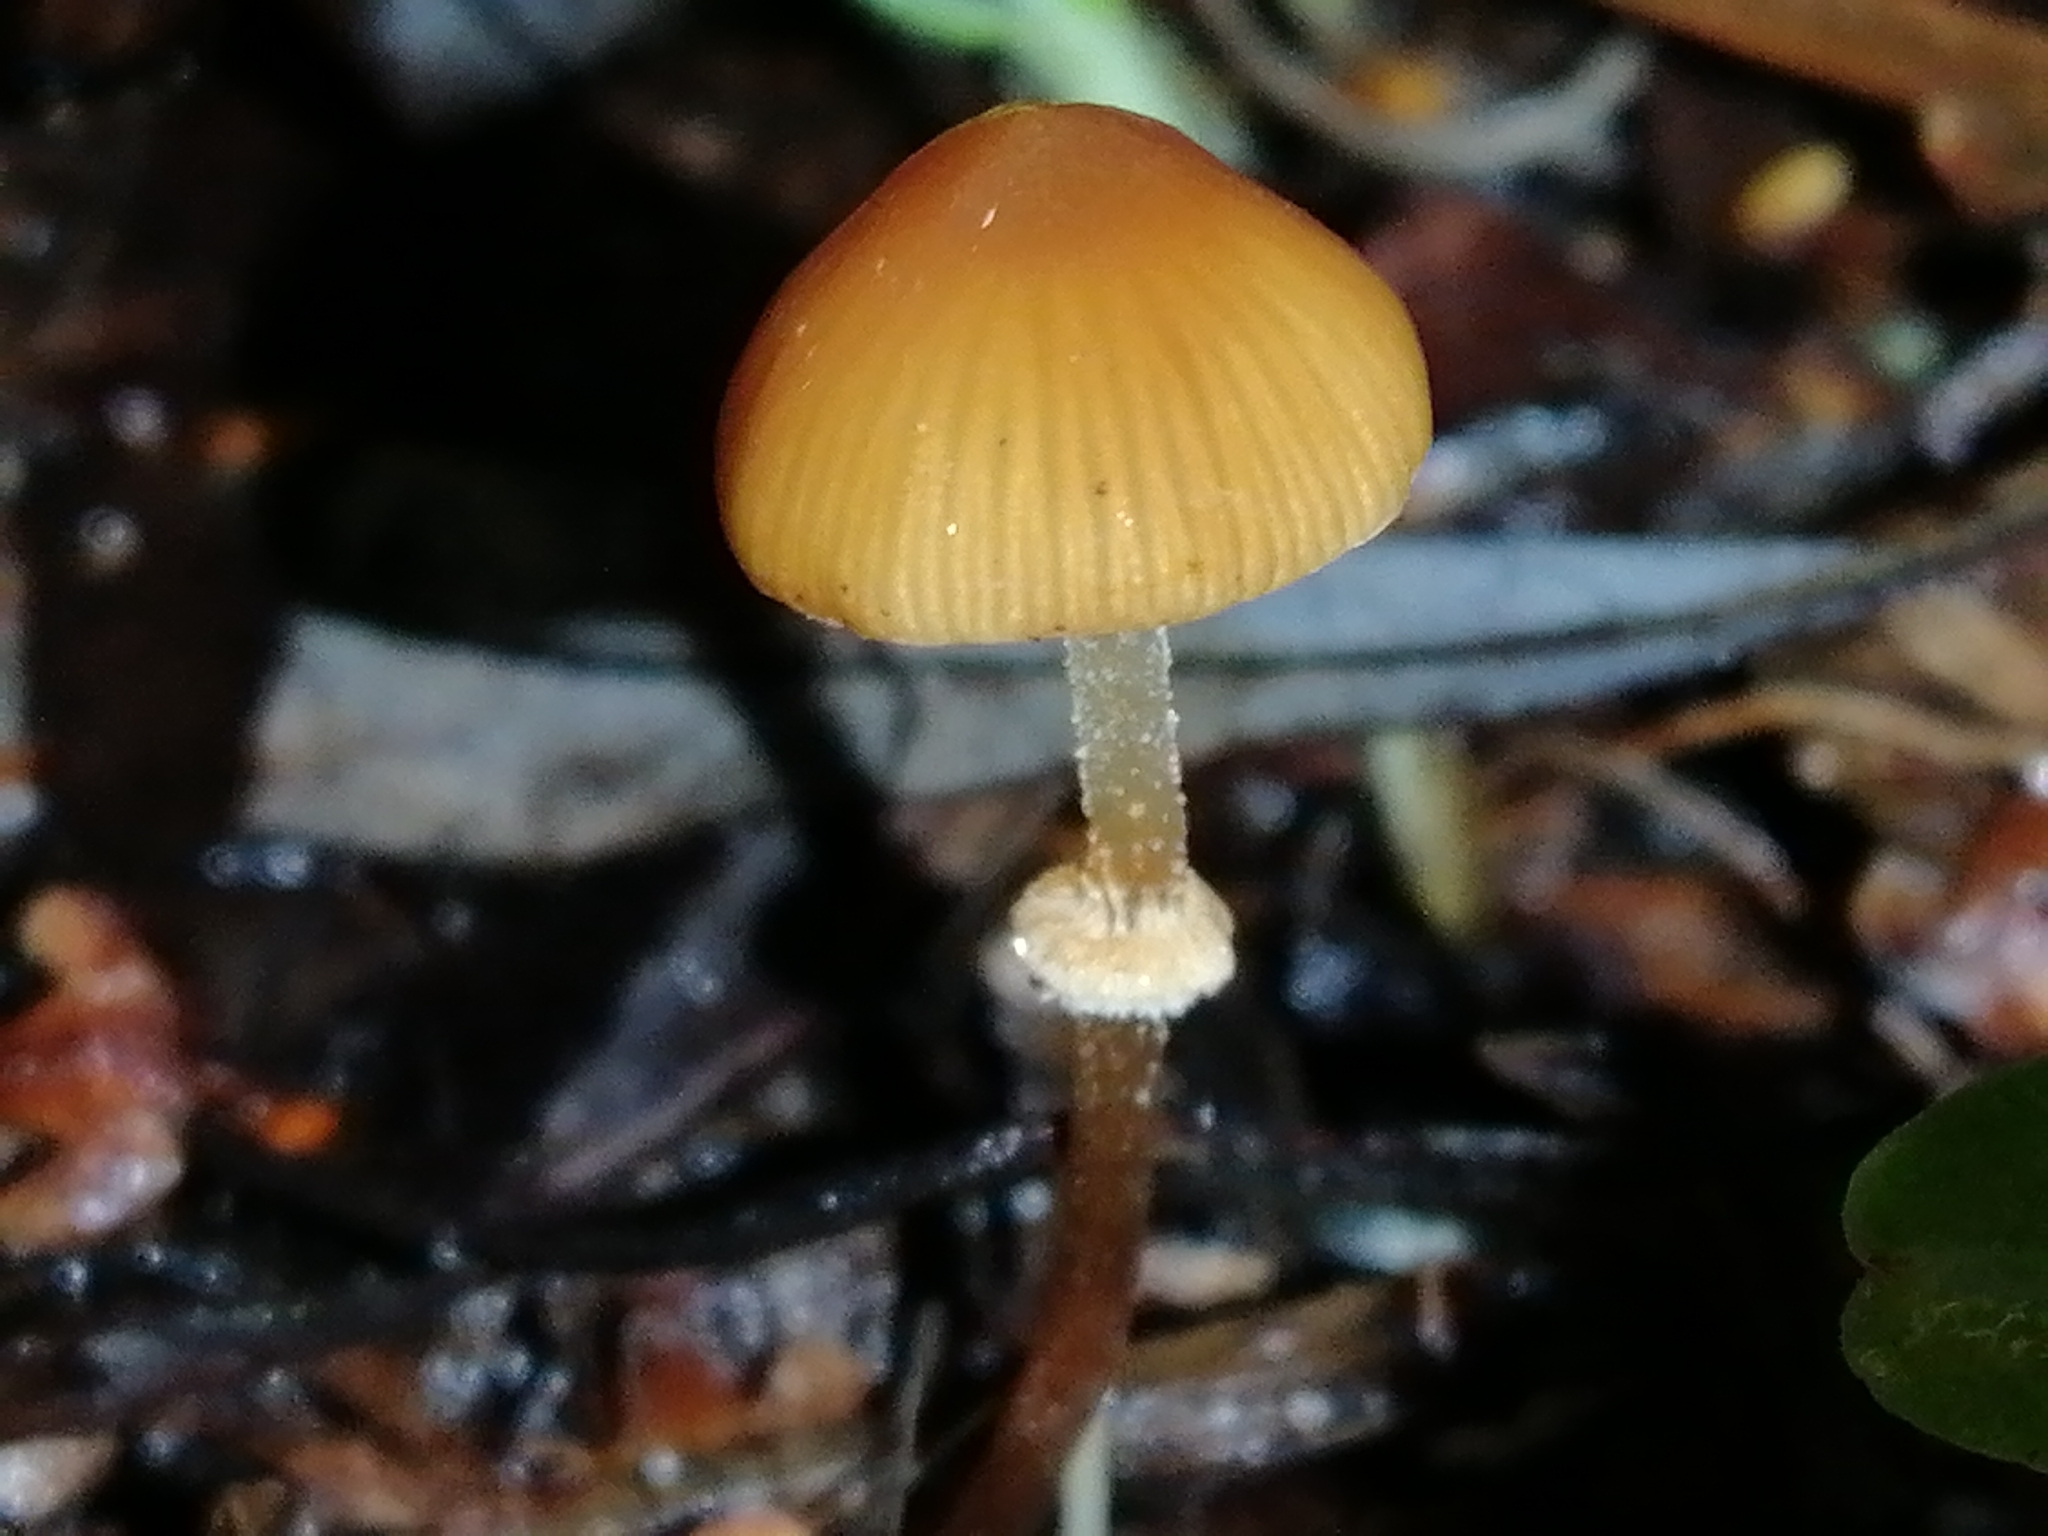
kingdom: Fungi
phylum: Basidiomycota
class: Agaricomycetes
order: Agaricales
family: Bolbitiaceae
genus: Pholiotina
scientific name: Pholiotina gracilenta
